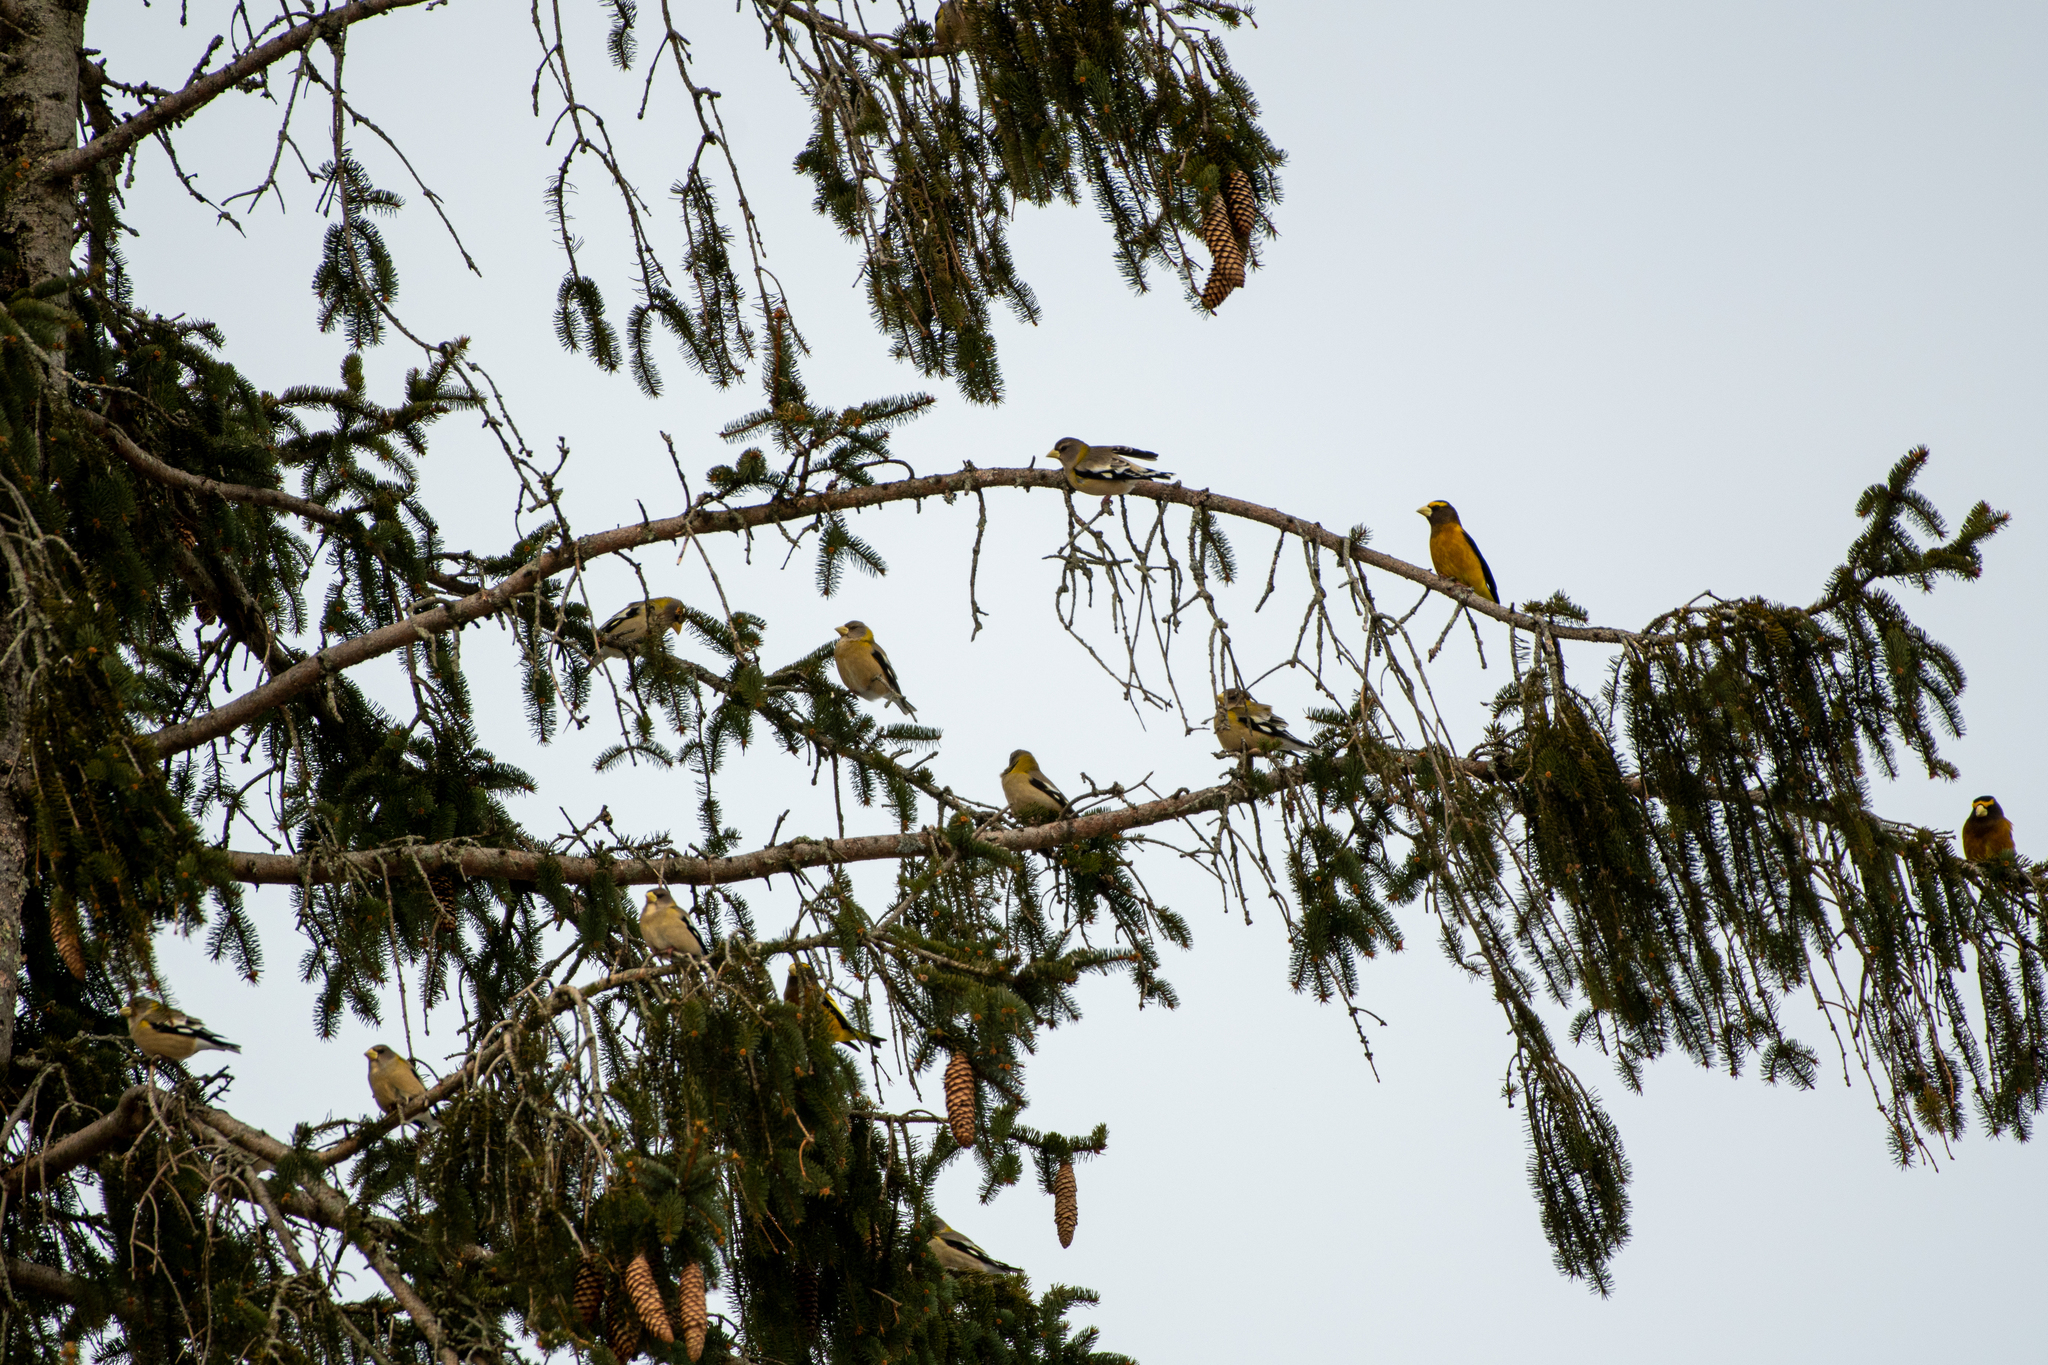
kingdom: Animalia
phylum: Chordata
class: Aves
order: Passeriformes
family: Fringillidae
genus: Hesperiphona
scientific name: Hesperiphona vespertina
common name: Evening grosbeak
